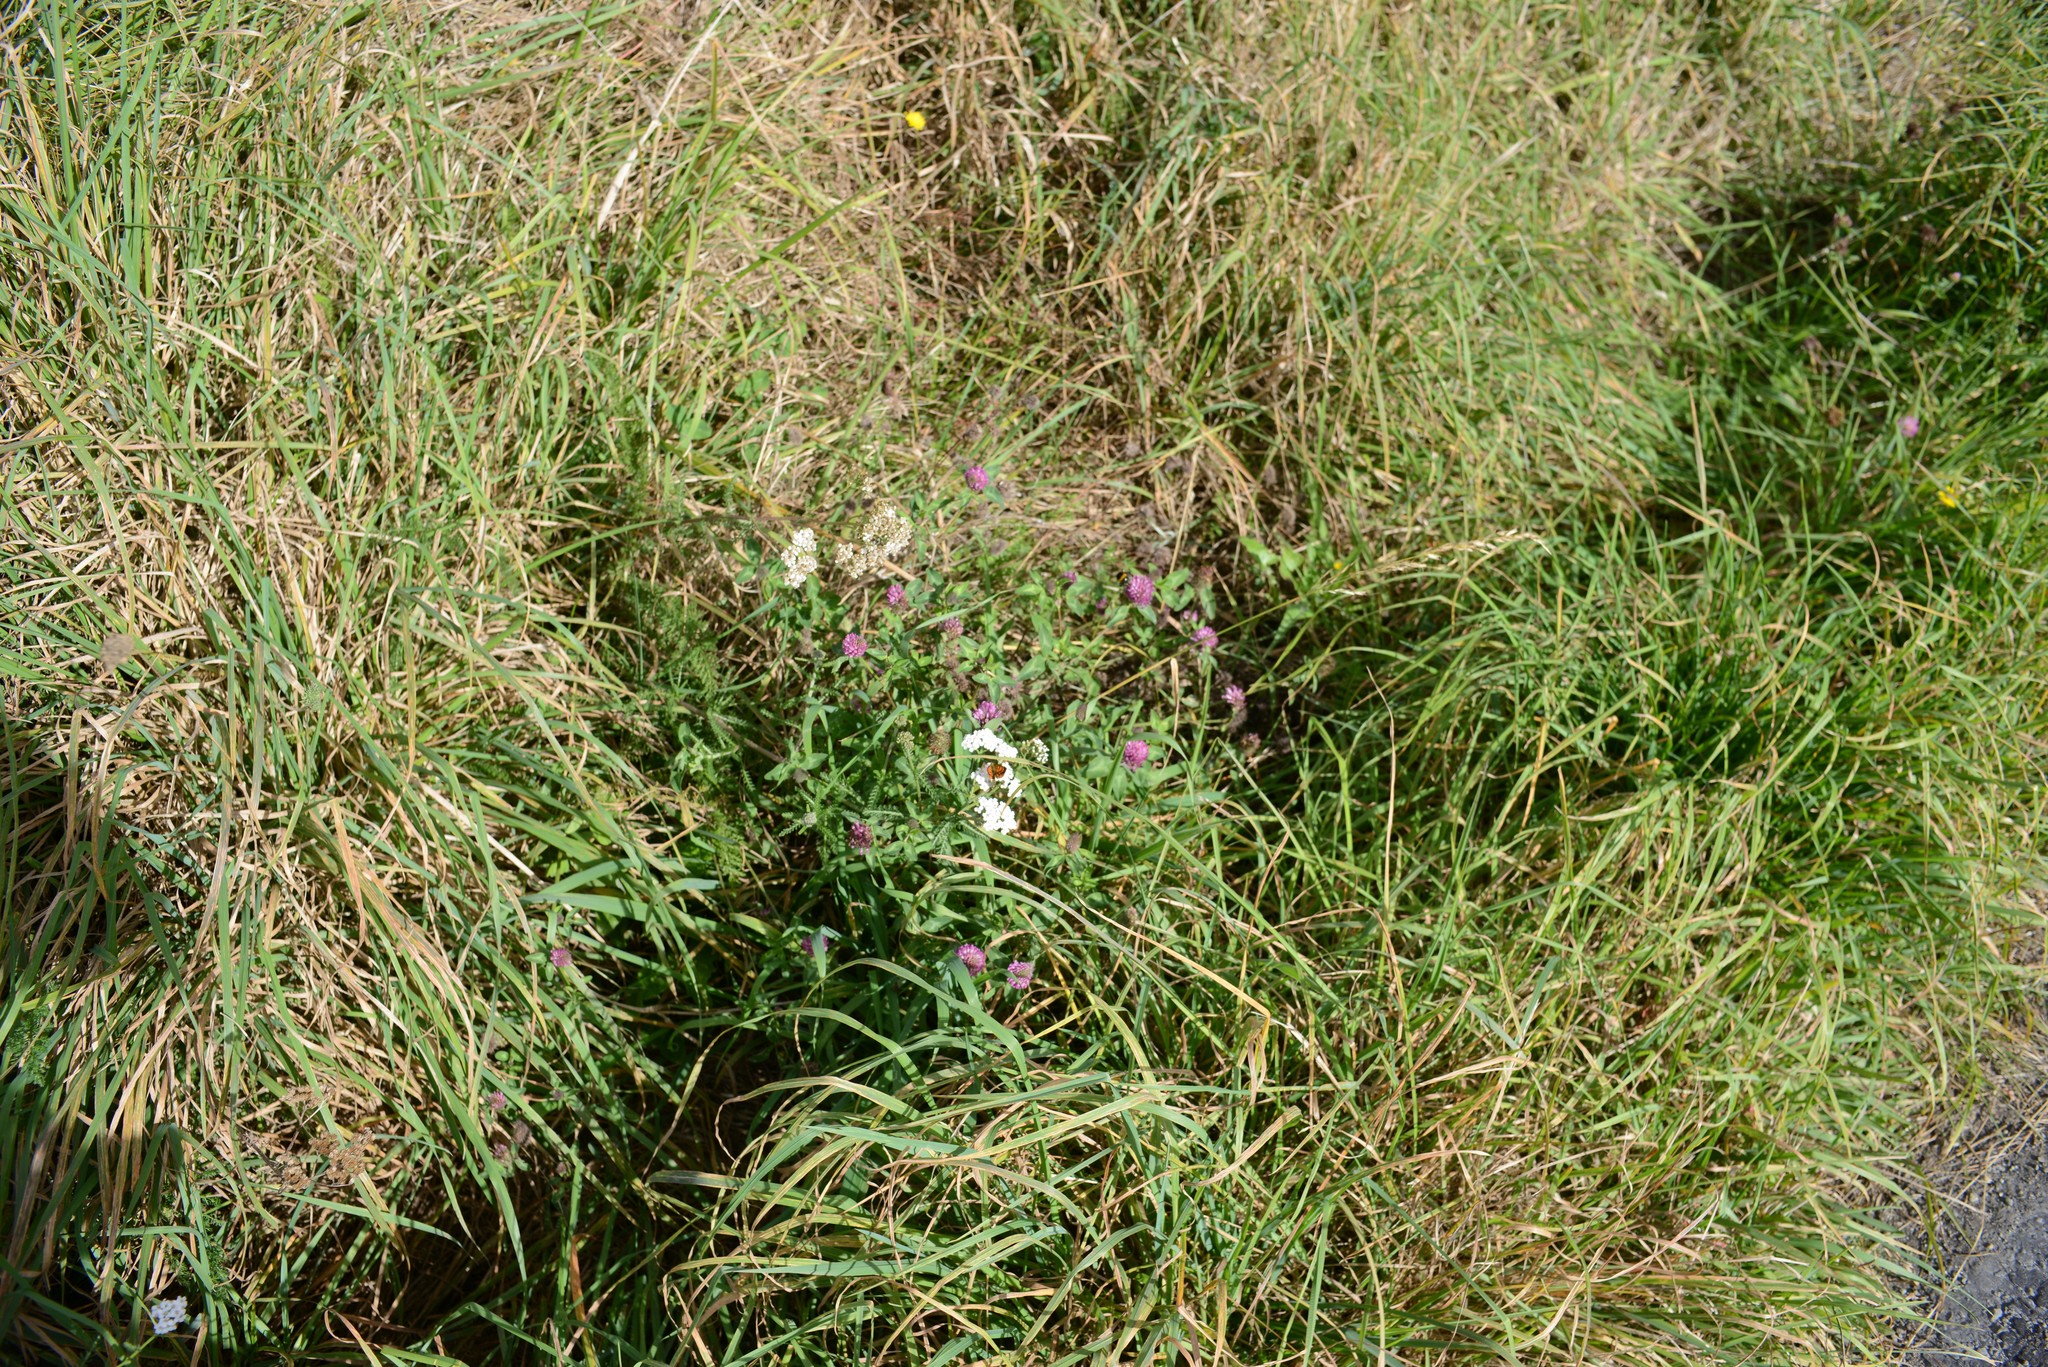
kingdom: Plantae
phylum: Tracheophyta
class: Magnoliopsida
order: Asterales
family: Asteraceae
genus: Achillea
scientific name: Achillea millefolium
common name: Yarrow
